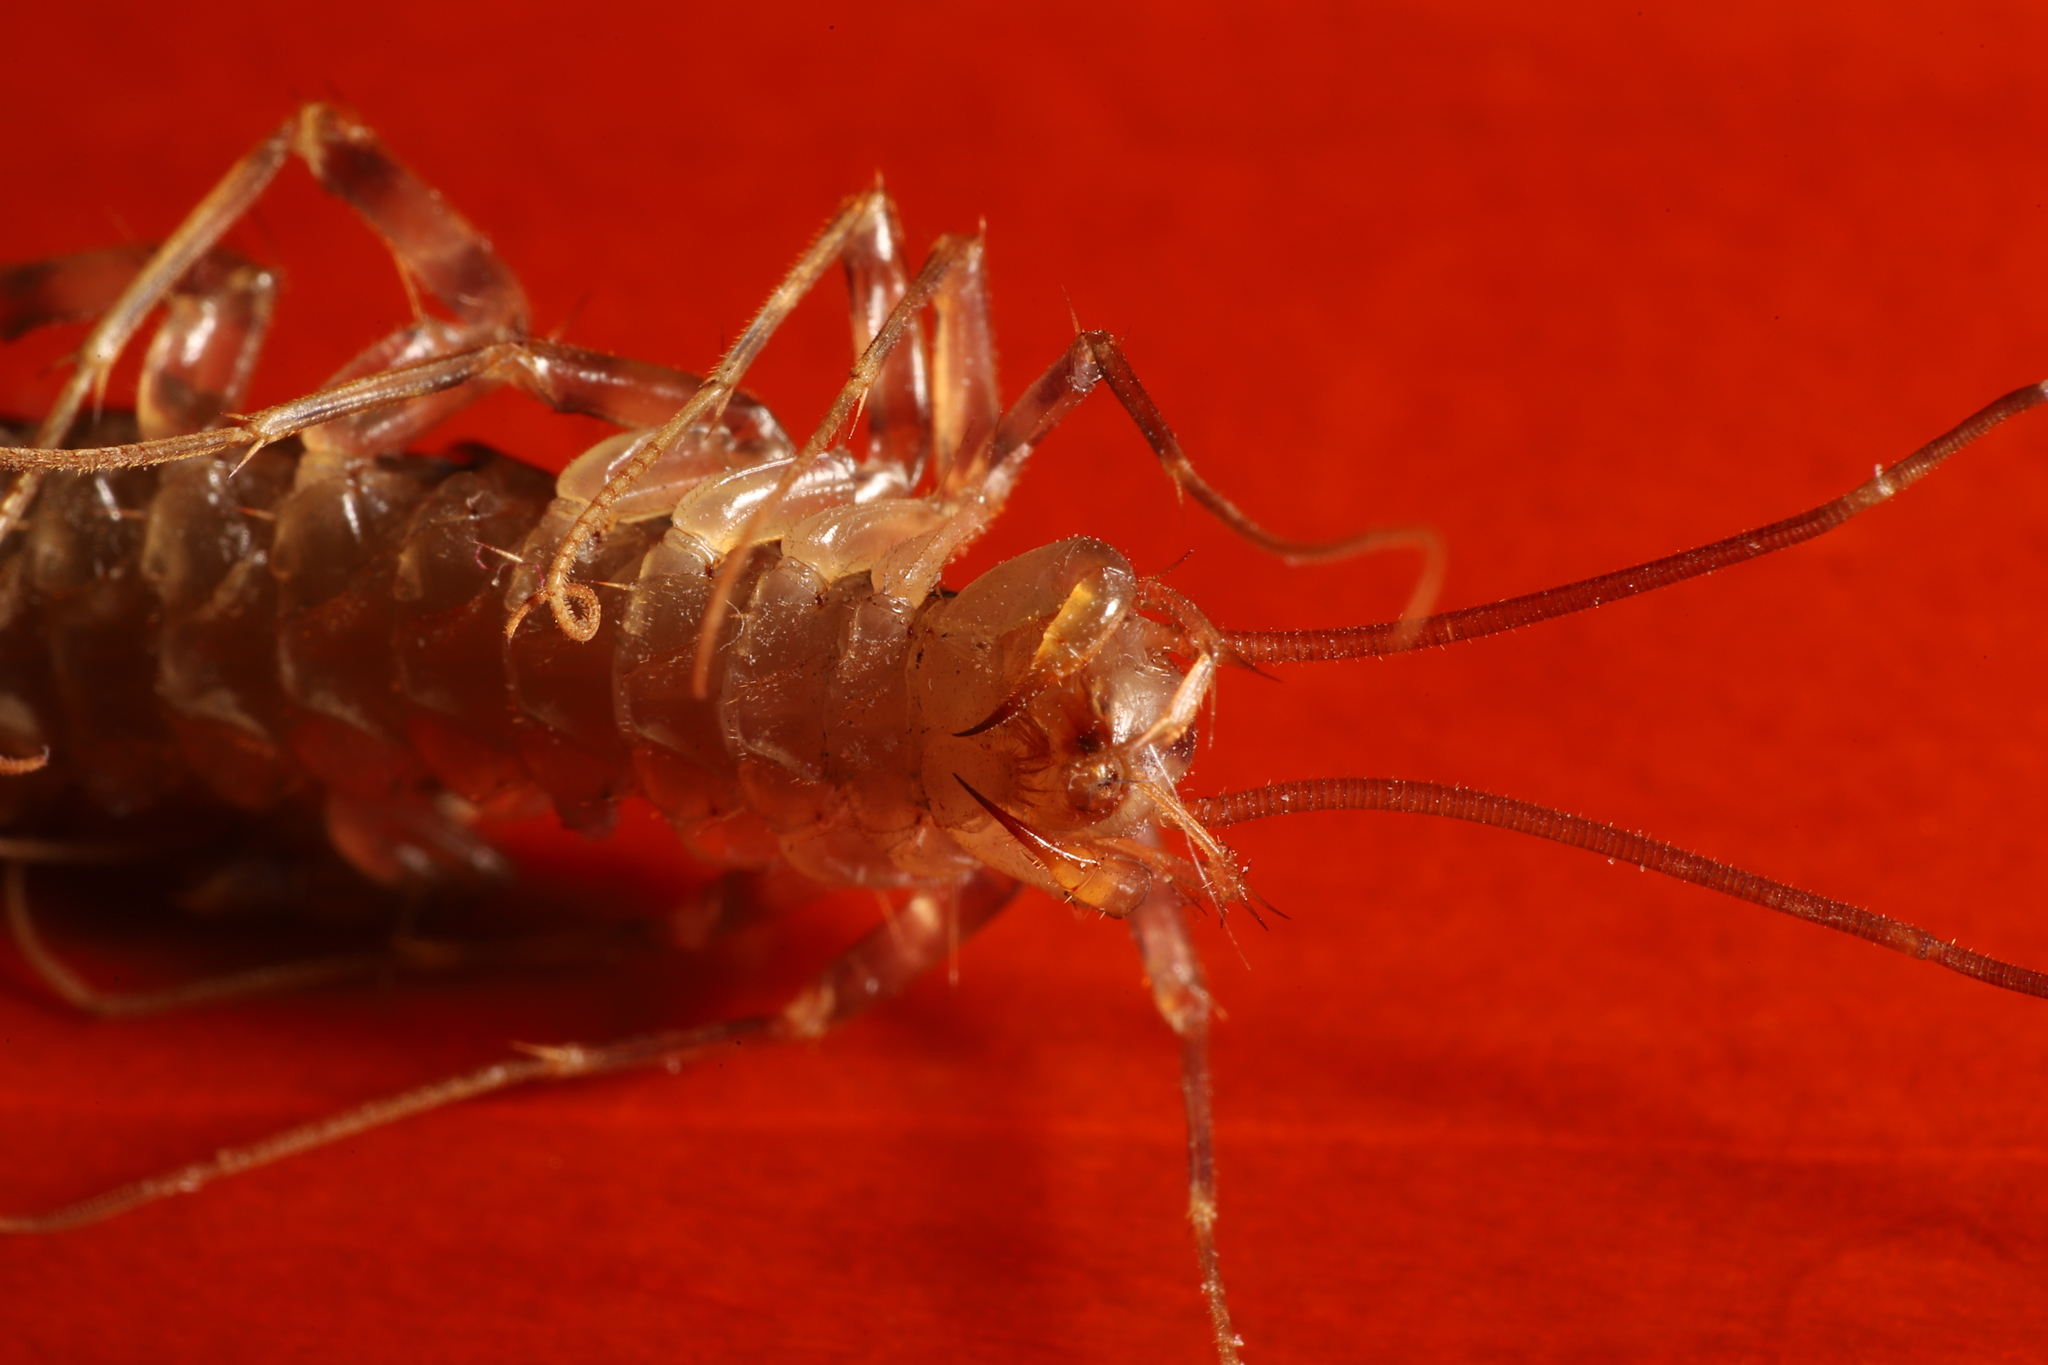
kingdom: Animalia
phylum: Arthropoda
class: Chilopoda
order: Scutigeromorpha
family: Scutigeridae
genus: Scutigera
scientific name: Scutigera coleoptrata
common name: House centipede
